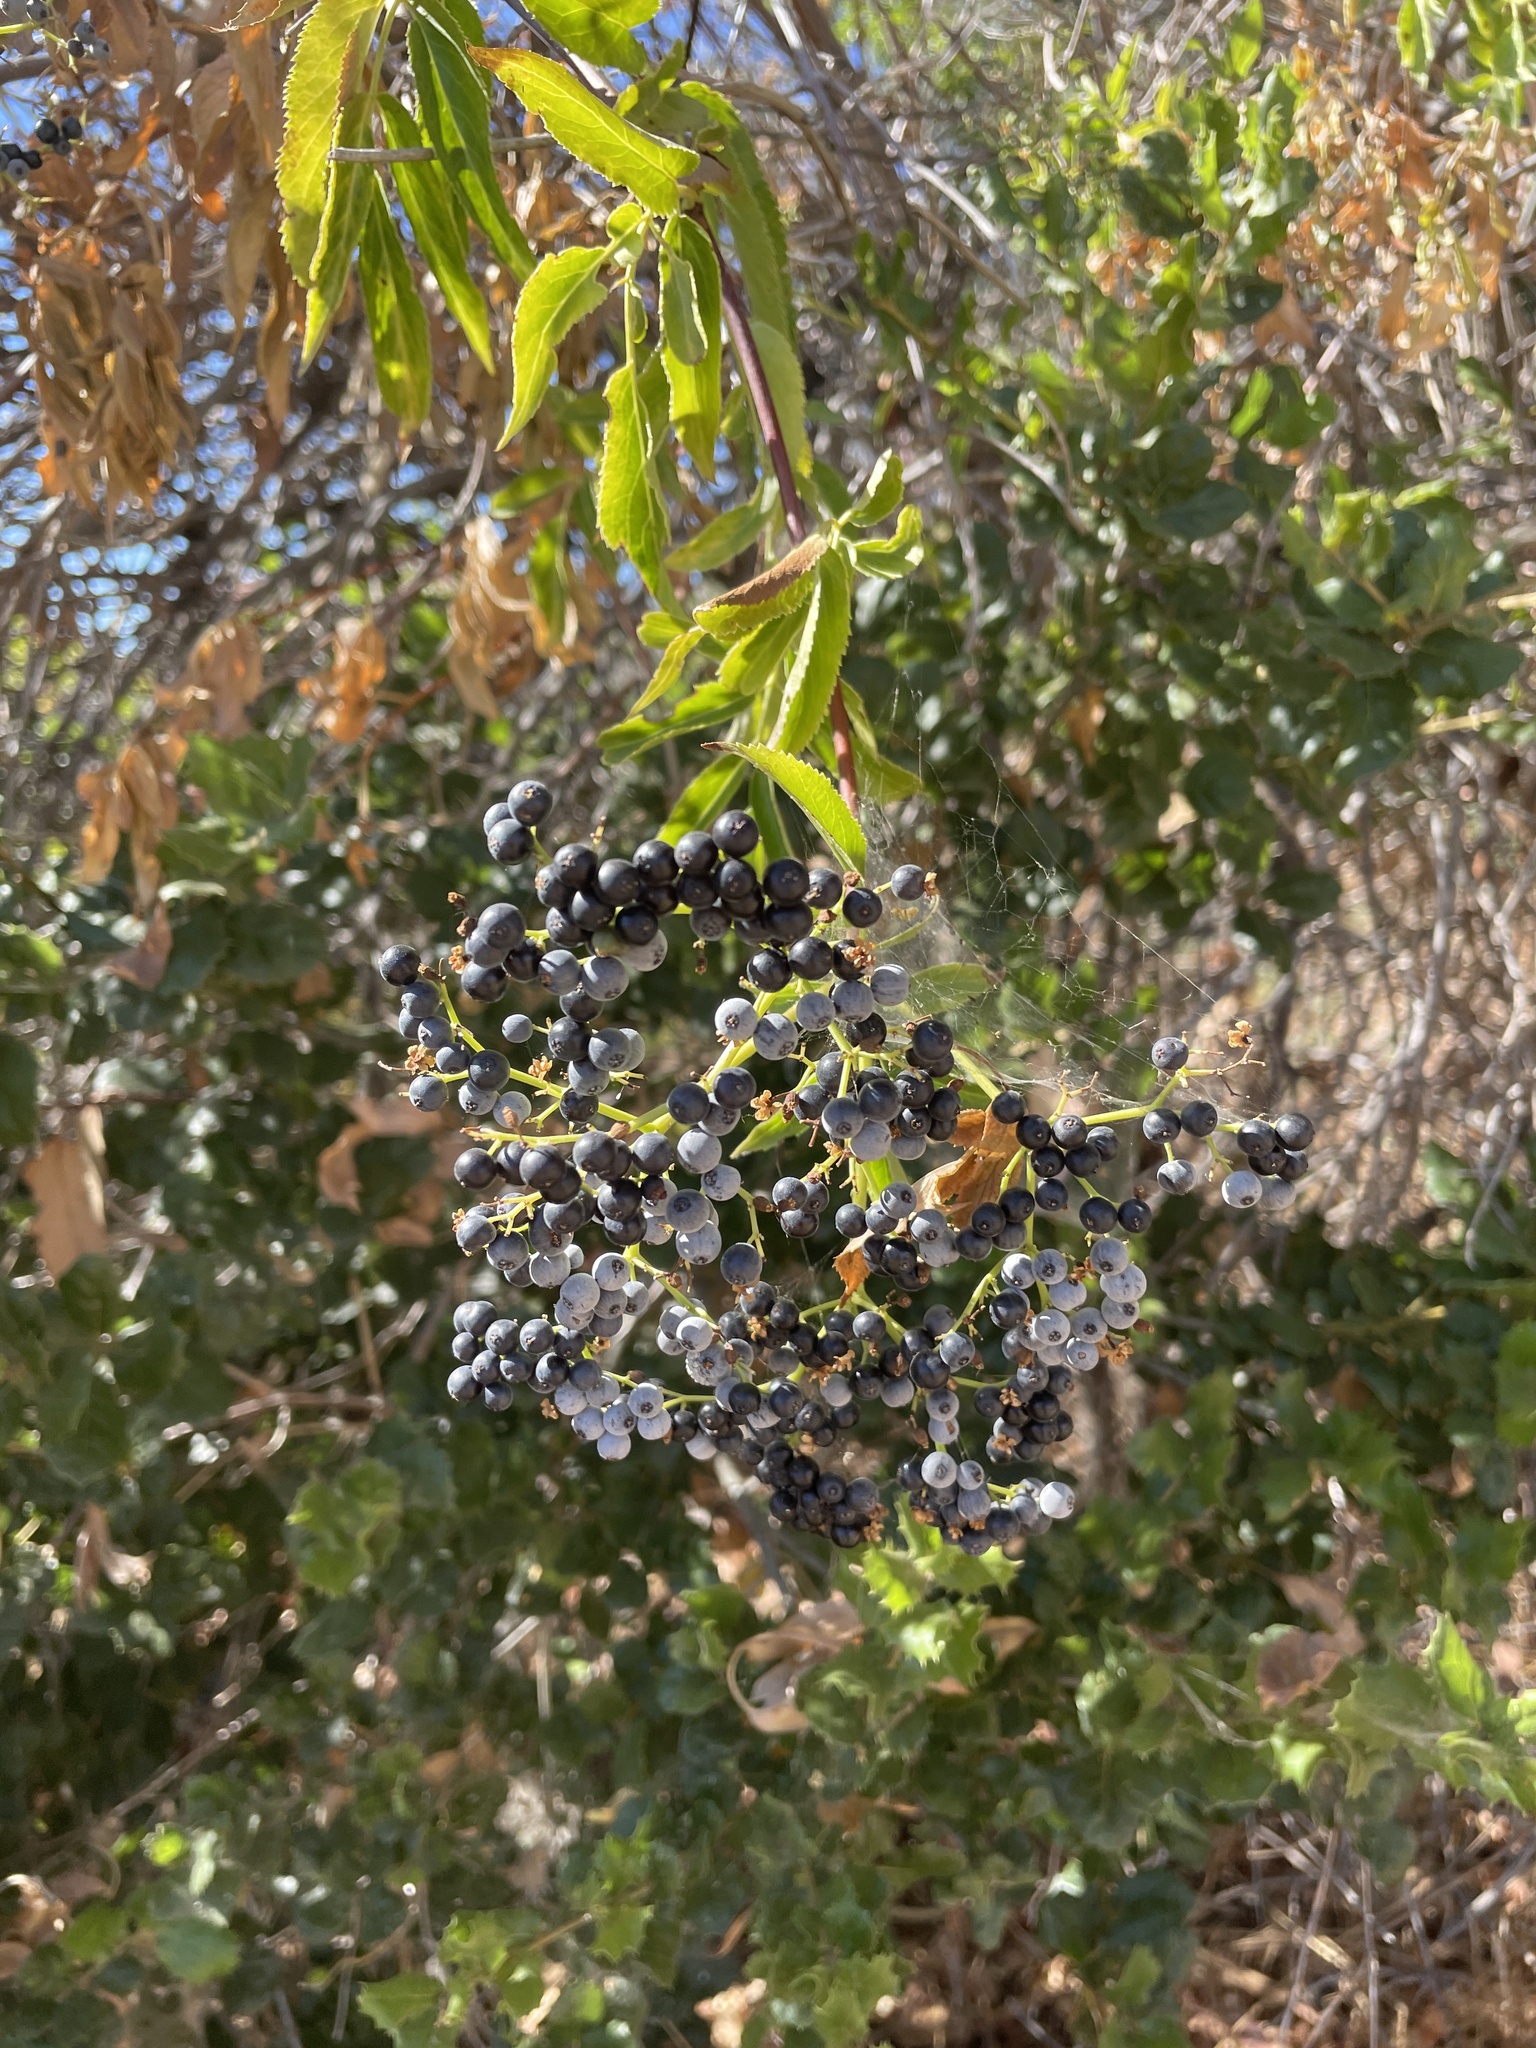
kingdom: Plantae
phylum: Tracheophyta
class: Magnoliopsida
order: Dipsacales
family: Viburnaceae
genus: Sambucus
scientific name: Sambucus cerulea
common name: Blue elder
